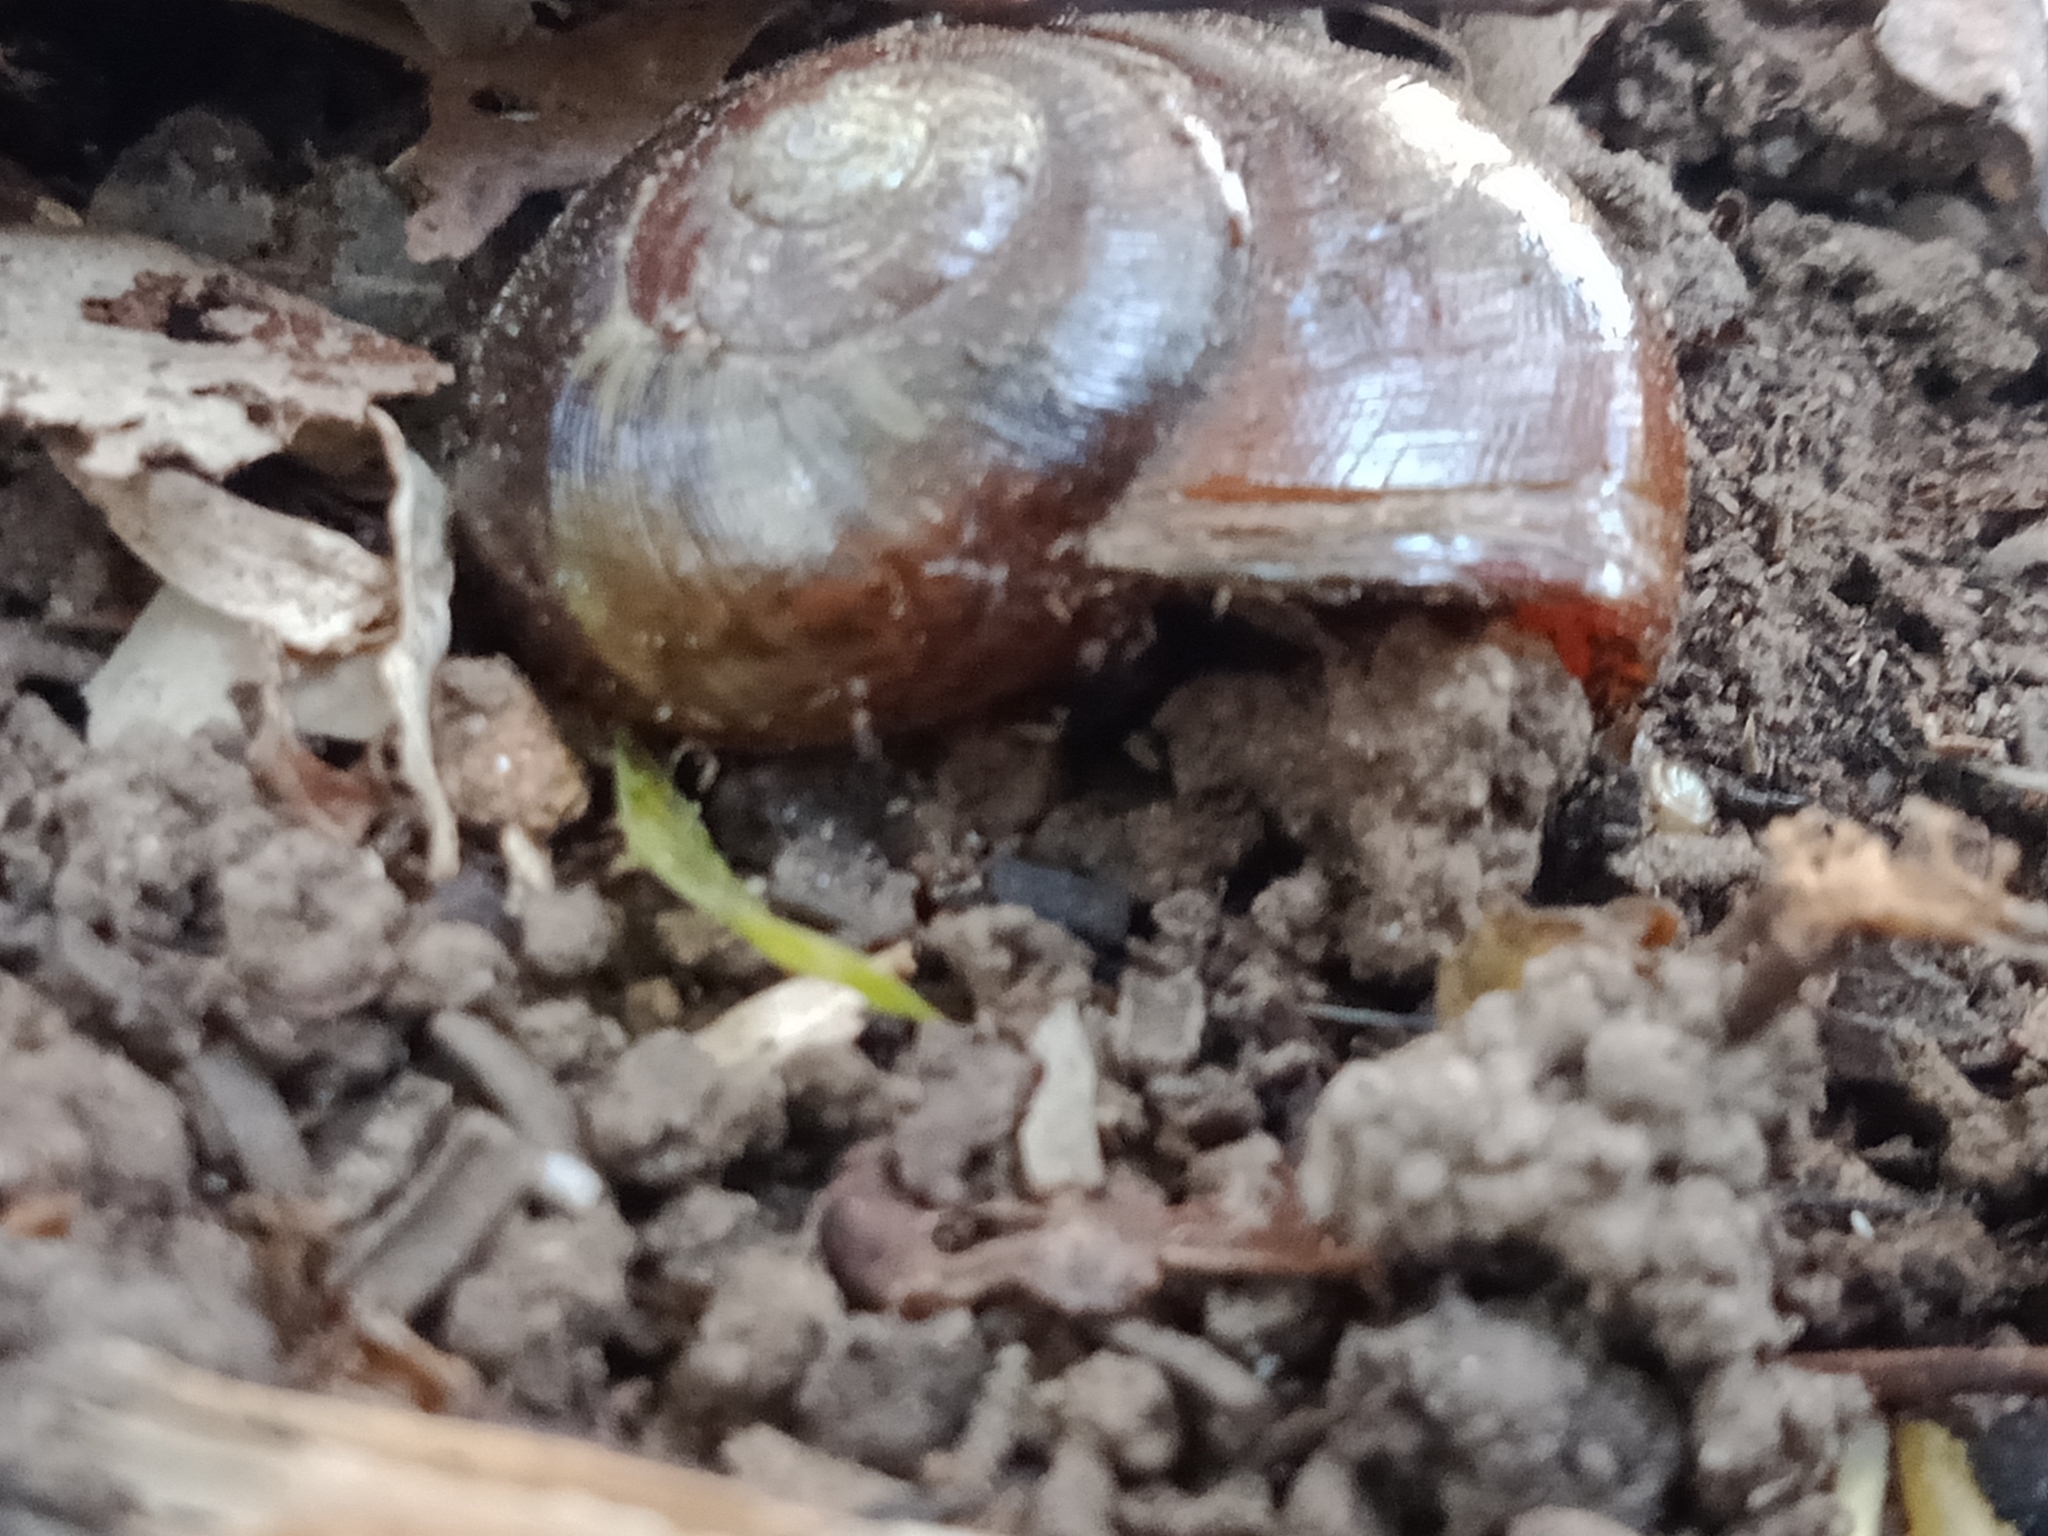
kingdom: Animalia
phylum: Mollusca
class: Gastropoda
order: Stylommatophora
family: Rhytididae
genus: Austrorhytida
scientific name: Austrorhytida capillacea
